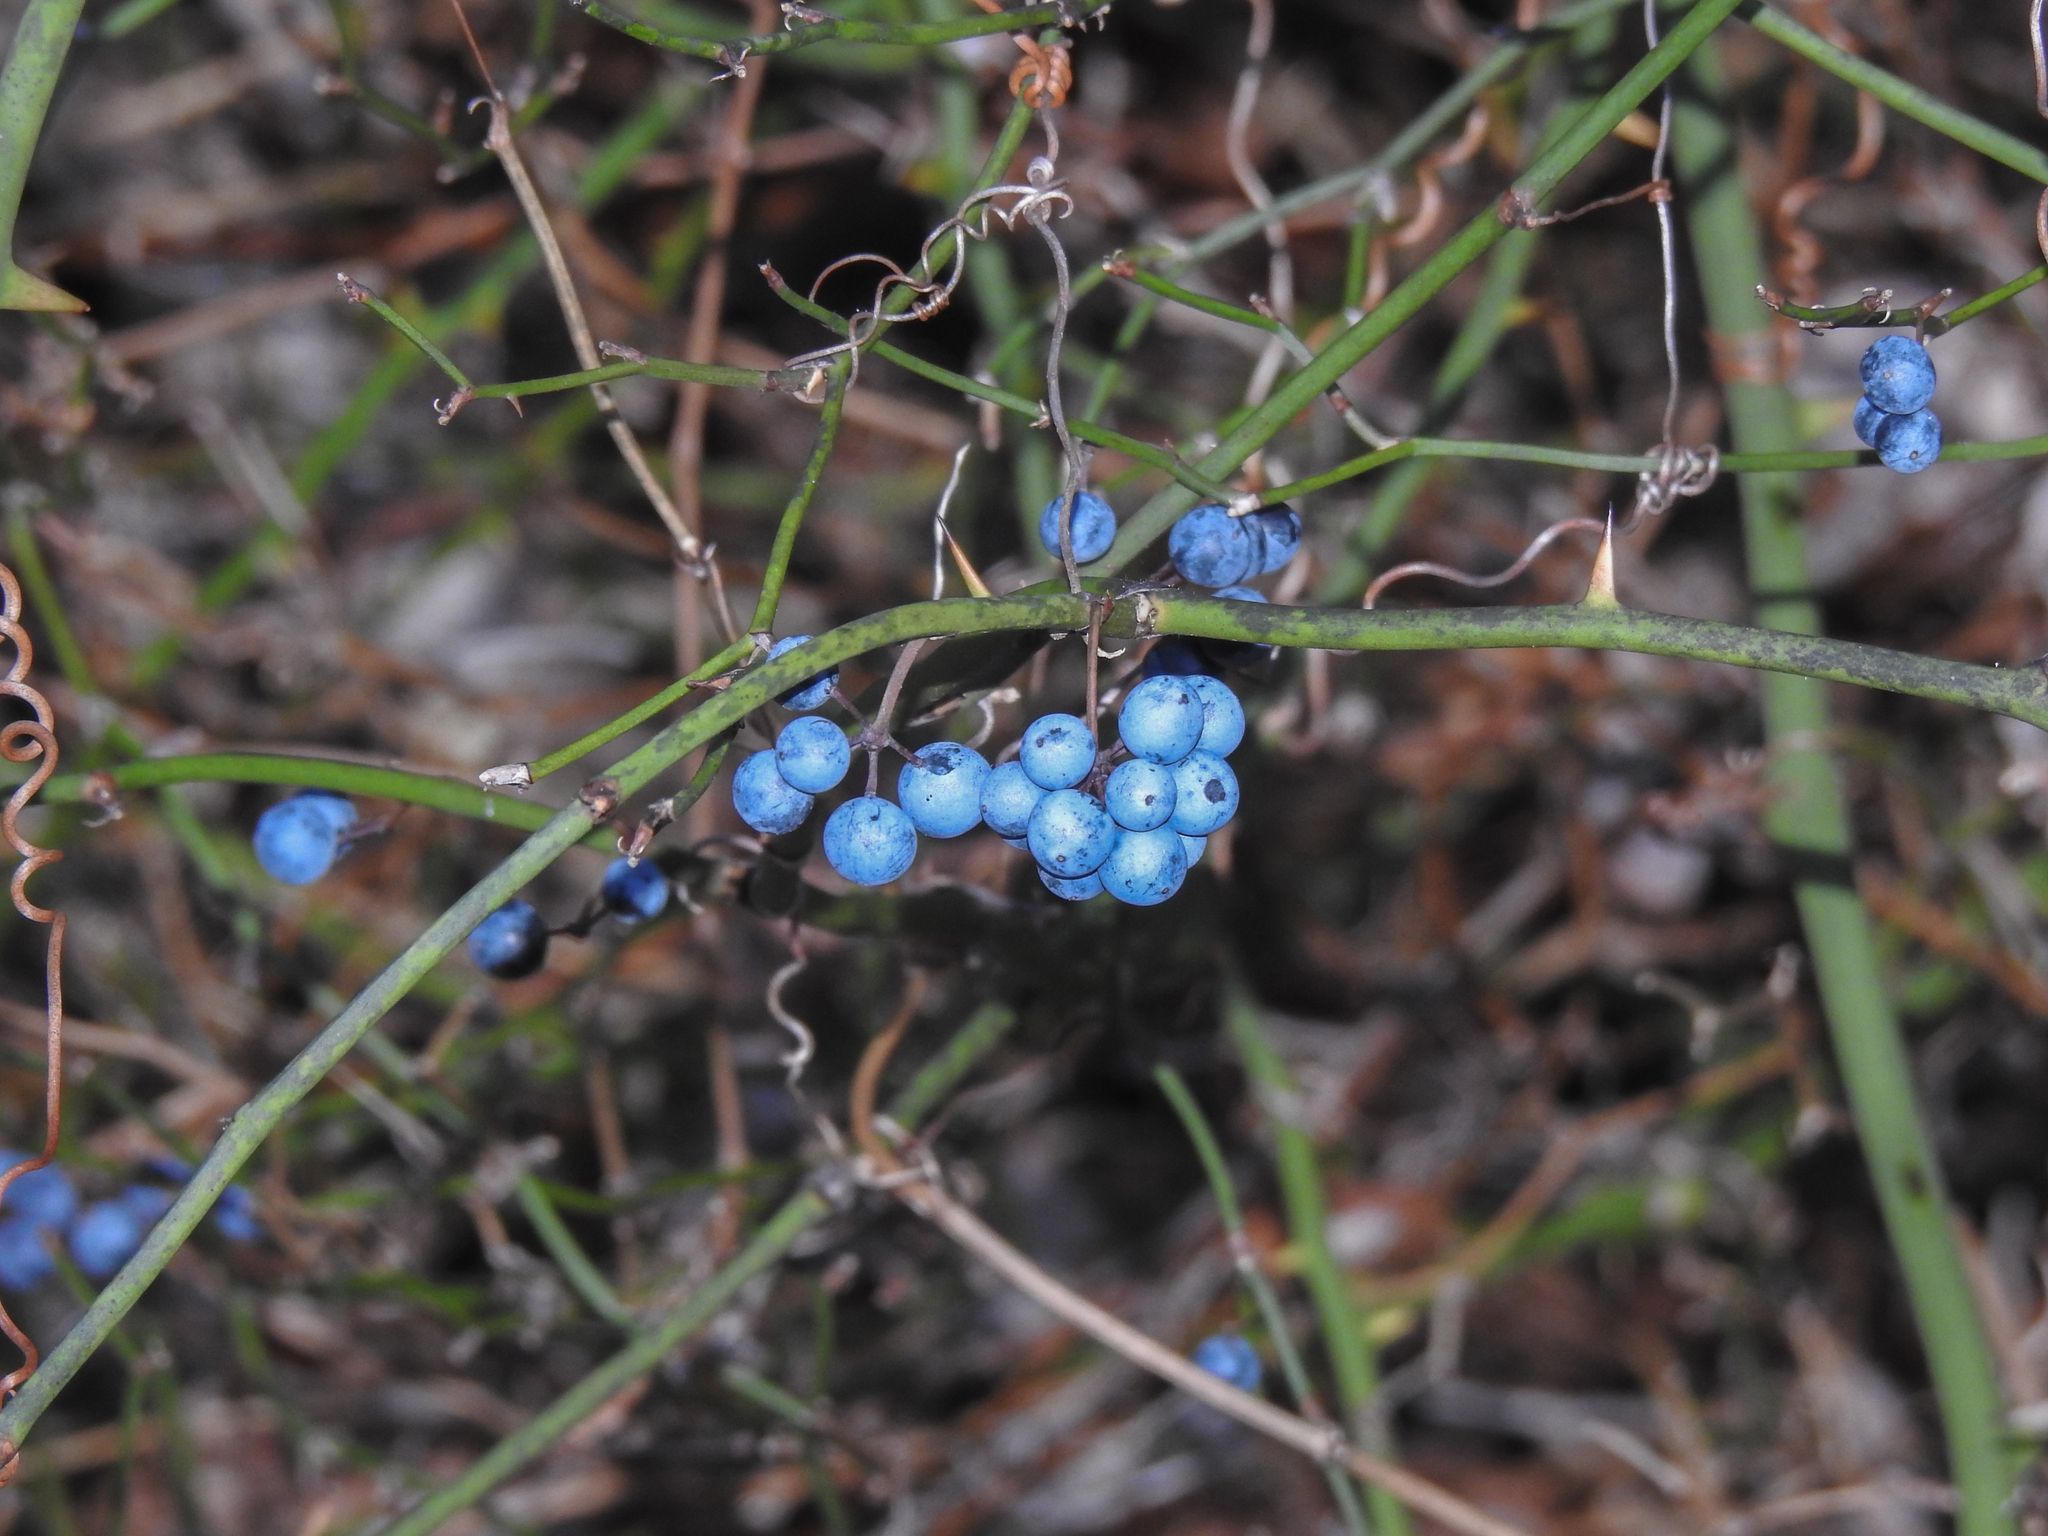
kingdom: Plantae
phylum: Tracheophyta
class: Liliopsida
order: Liliales
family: Smilacaceae
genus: Smilax
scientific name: Smilax rotundifolia
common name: Bullbriar
